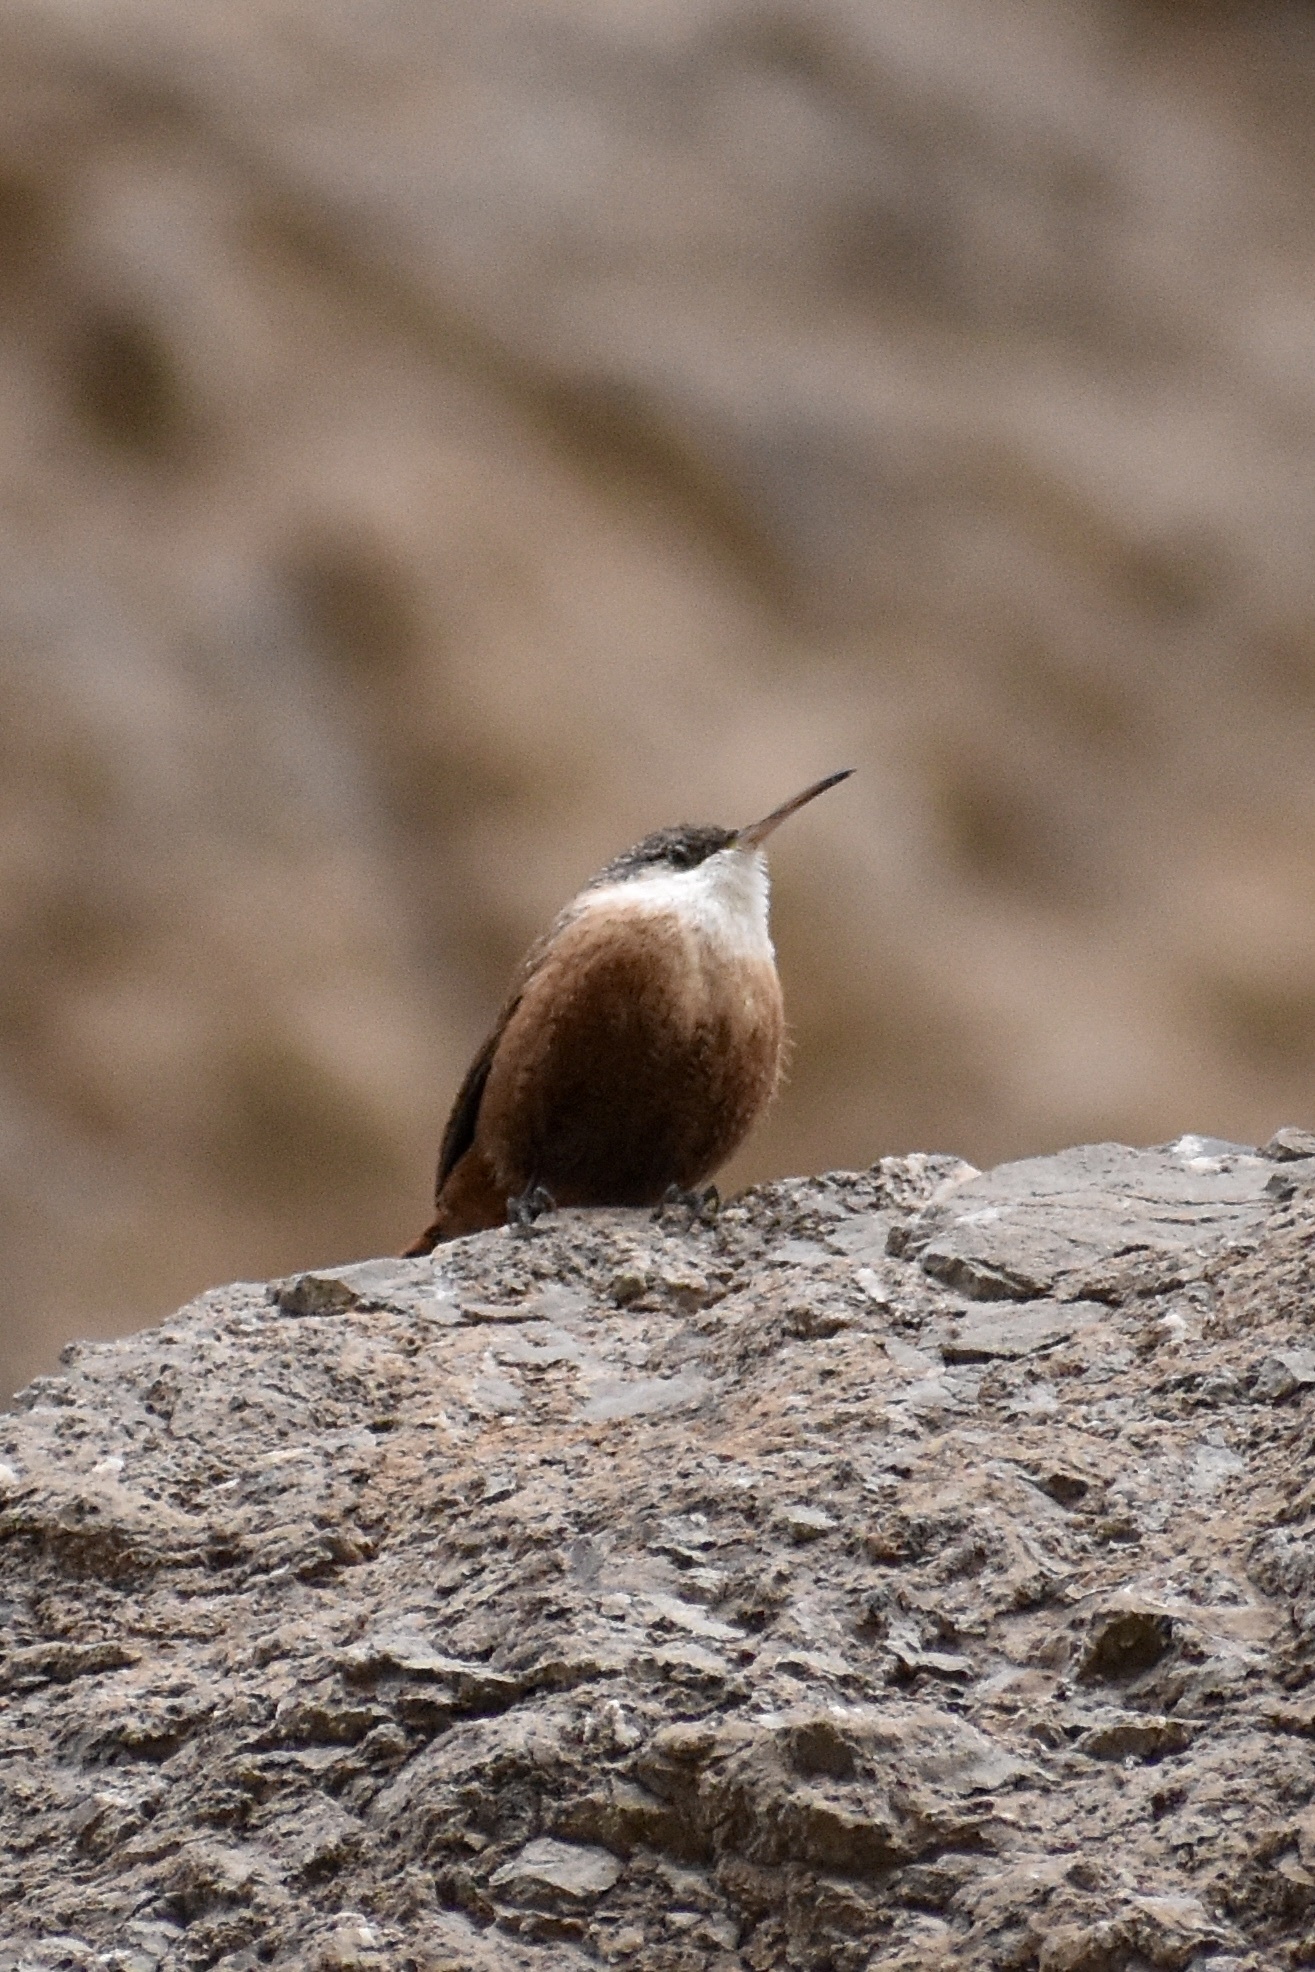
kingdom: Animalia
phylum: Chordata
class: Aves
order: Passeriformes
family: Troglodytidae
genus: Catherpes
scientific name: Catherpes mexicanus
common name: Canyon wren
